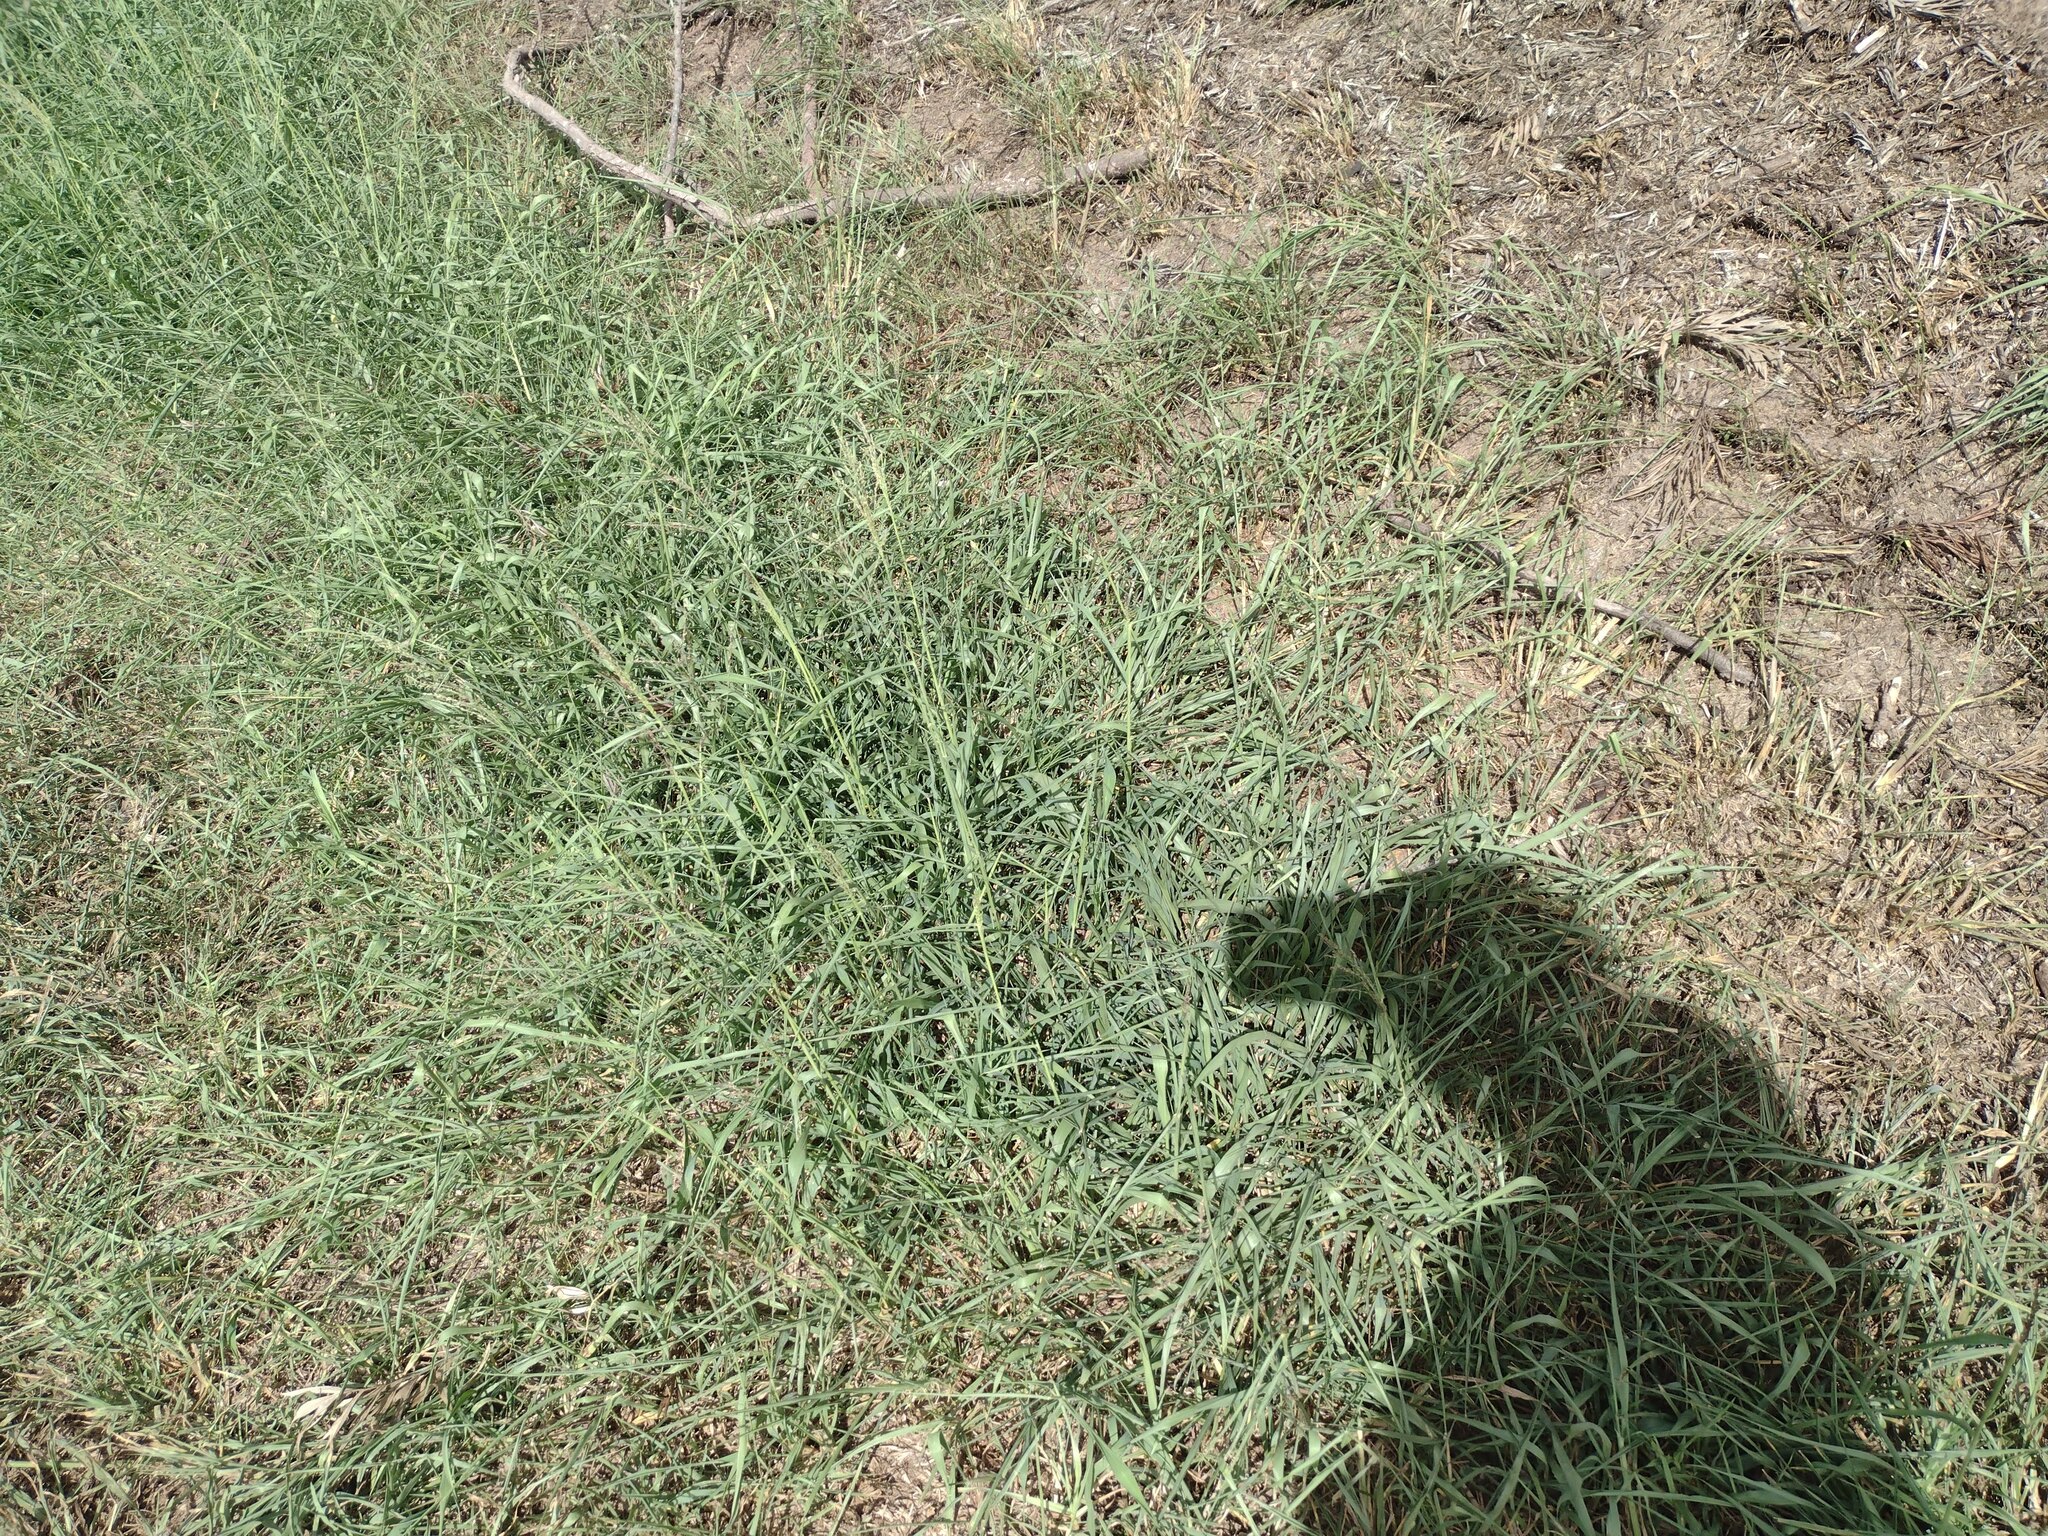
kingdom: Plantae
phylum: Tracheophyta
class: Liliopsida
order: Poales
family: Poaceae
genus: Megathyrsus
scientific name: Megathyrsus maximus
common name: Guineagrass
